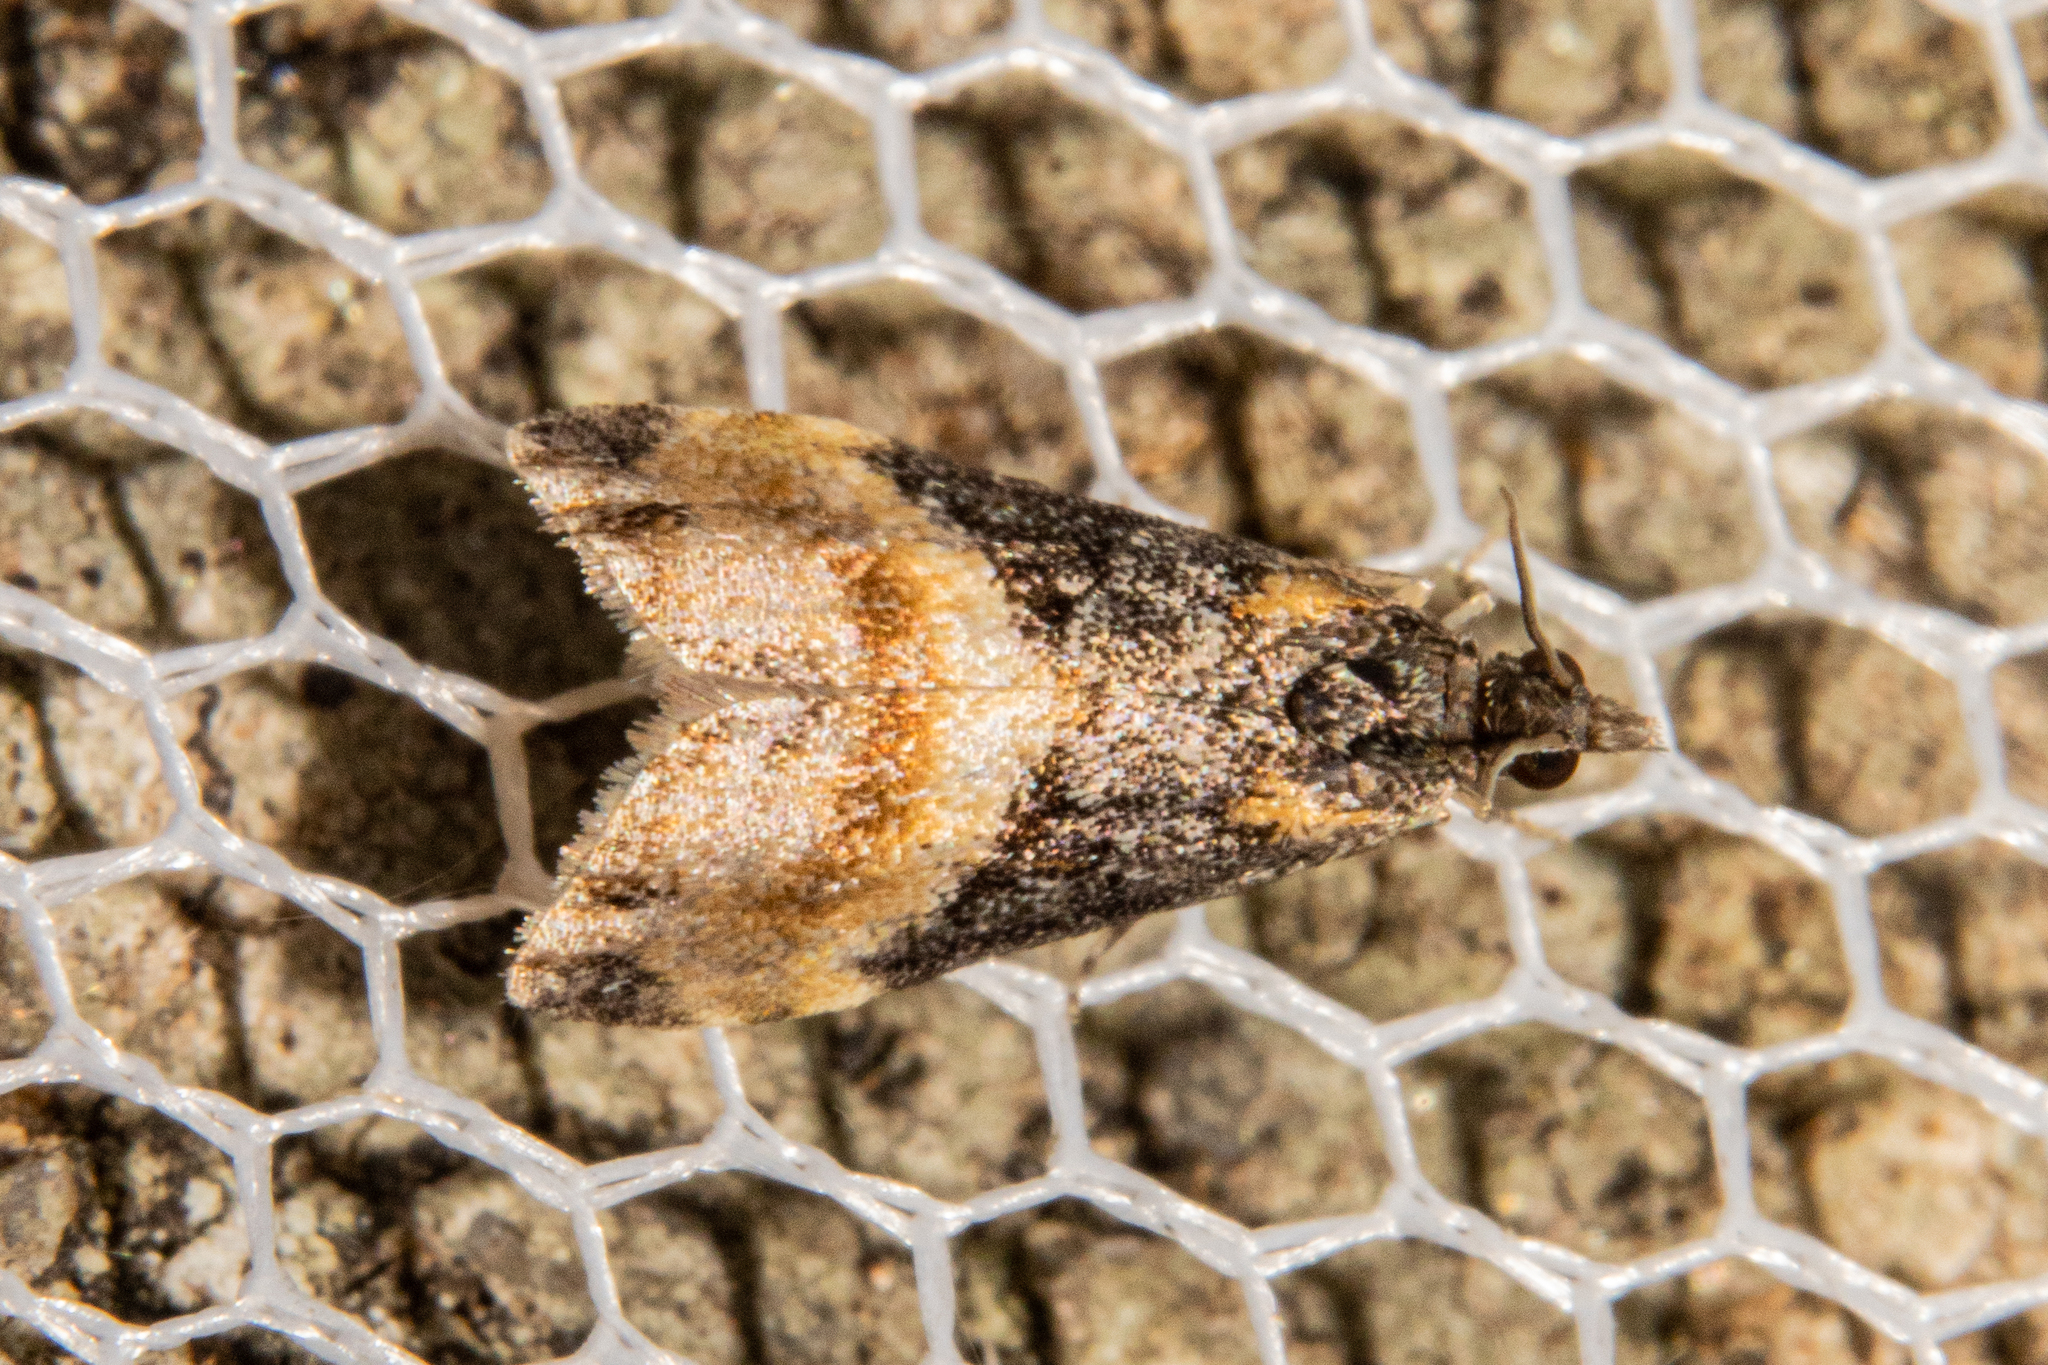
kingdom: Animalia
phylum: Arthropoda
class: Insecta
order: Lepidoptera
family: Crambidae
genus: Eudonia
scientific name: Eudonia chlamydota
